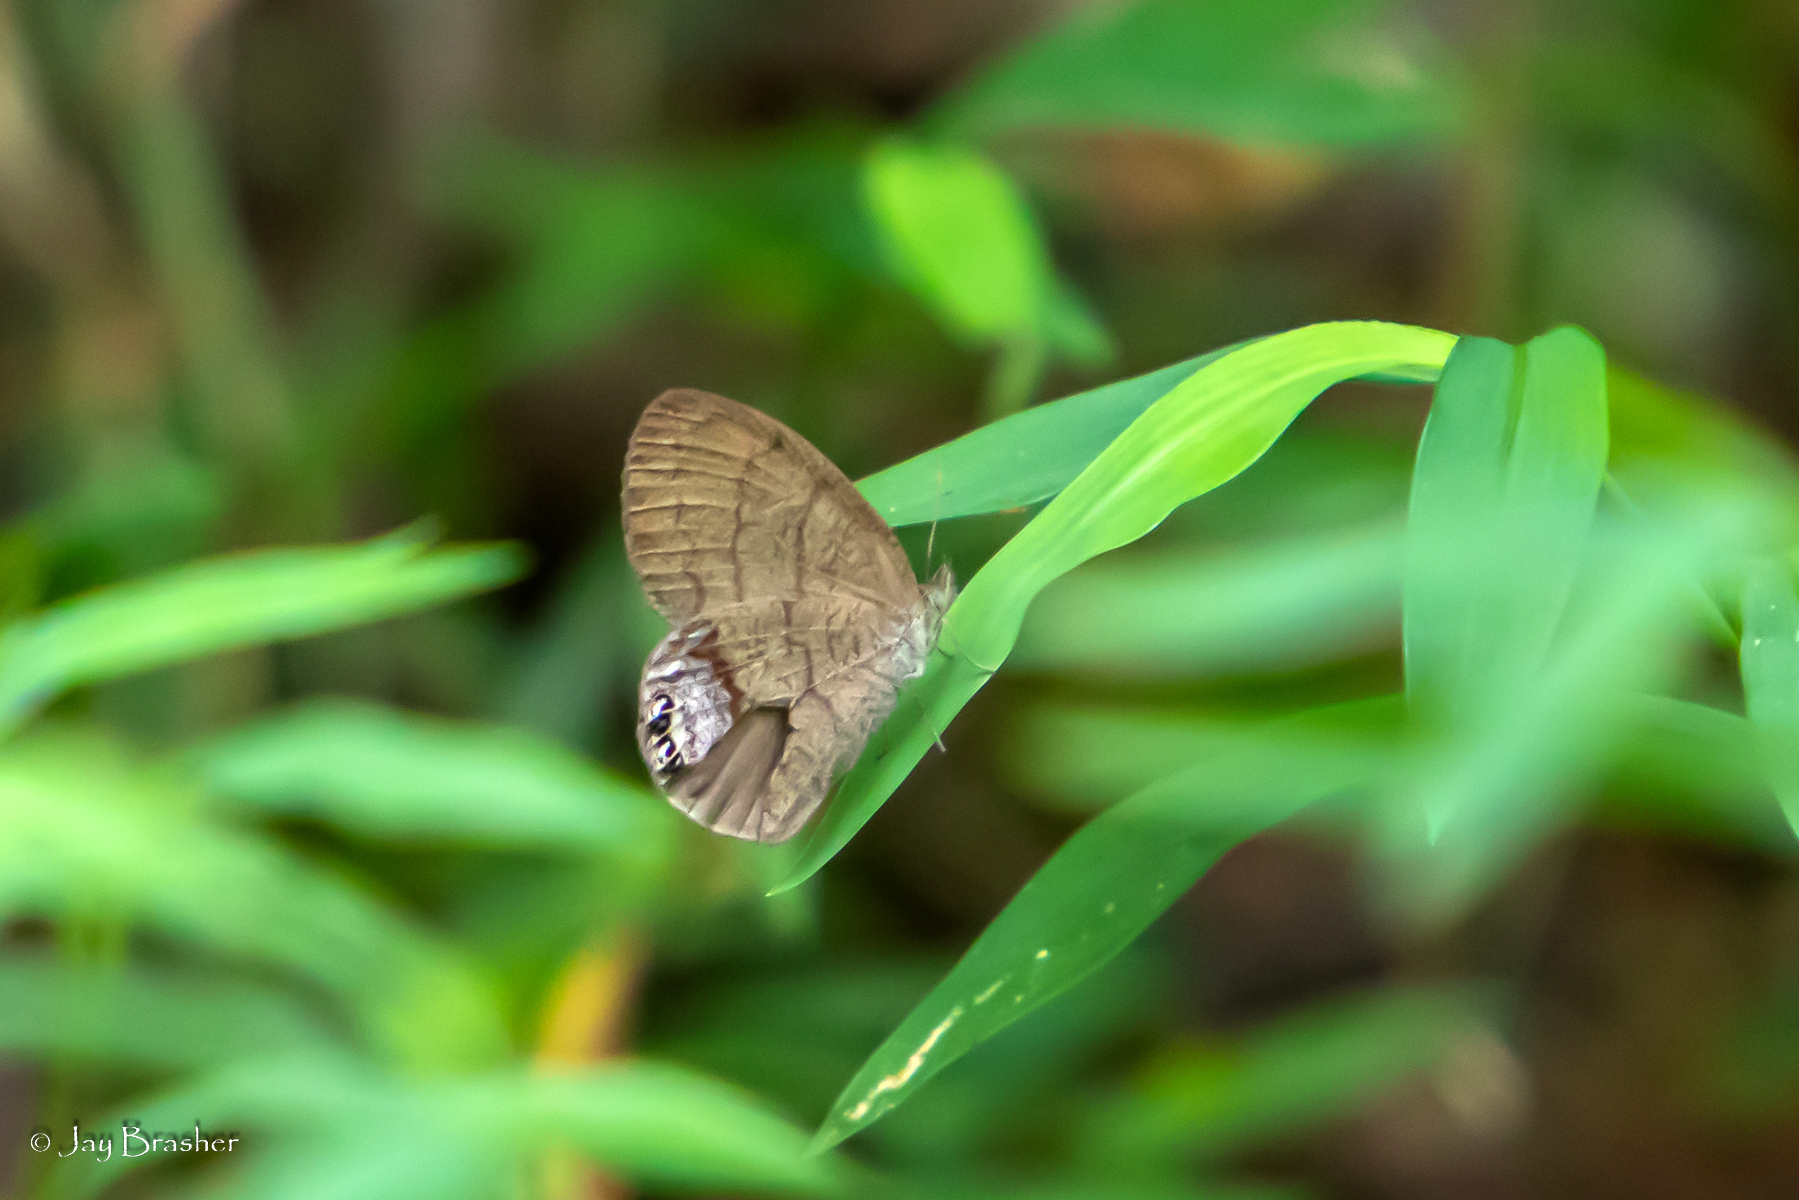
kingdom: Animalia
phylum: Arthropoda
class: Insecta
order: Lepidoptera
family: Nymphalidae
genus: Euptychia
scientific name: Euptychia cornelius
